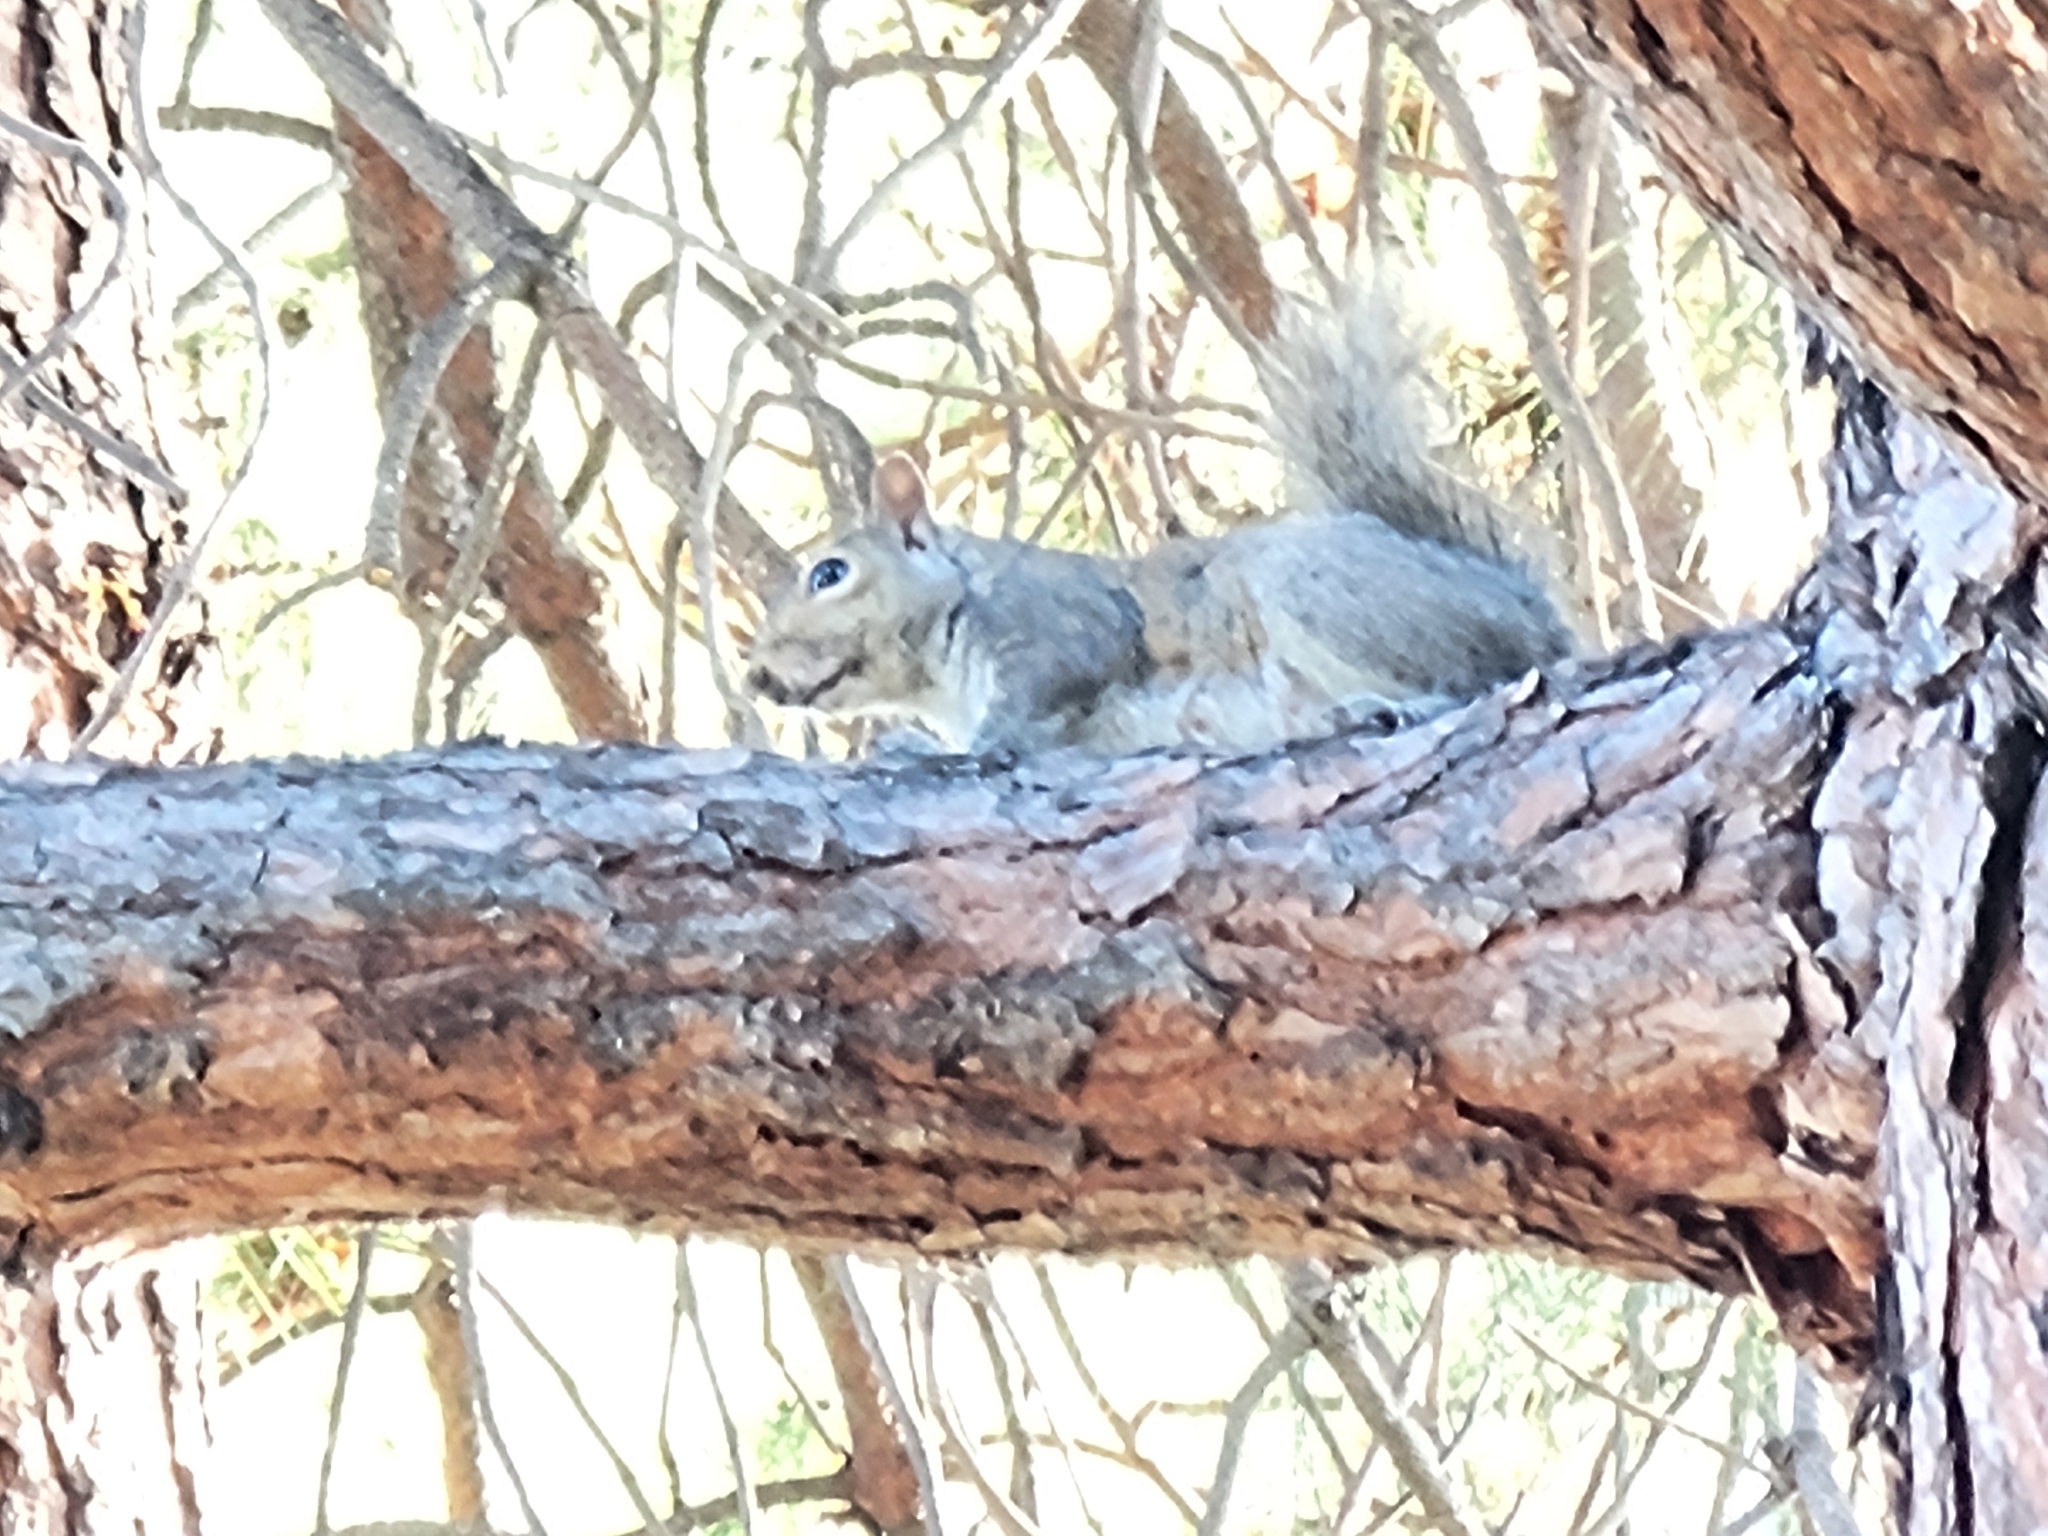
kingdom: Animalia
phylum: Chordata
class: Mammalia
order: Rodentia
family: Sciuridae
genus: Sciurus
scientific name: Sciurus carolinensis
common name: Eastern gray squirrel
